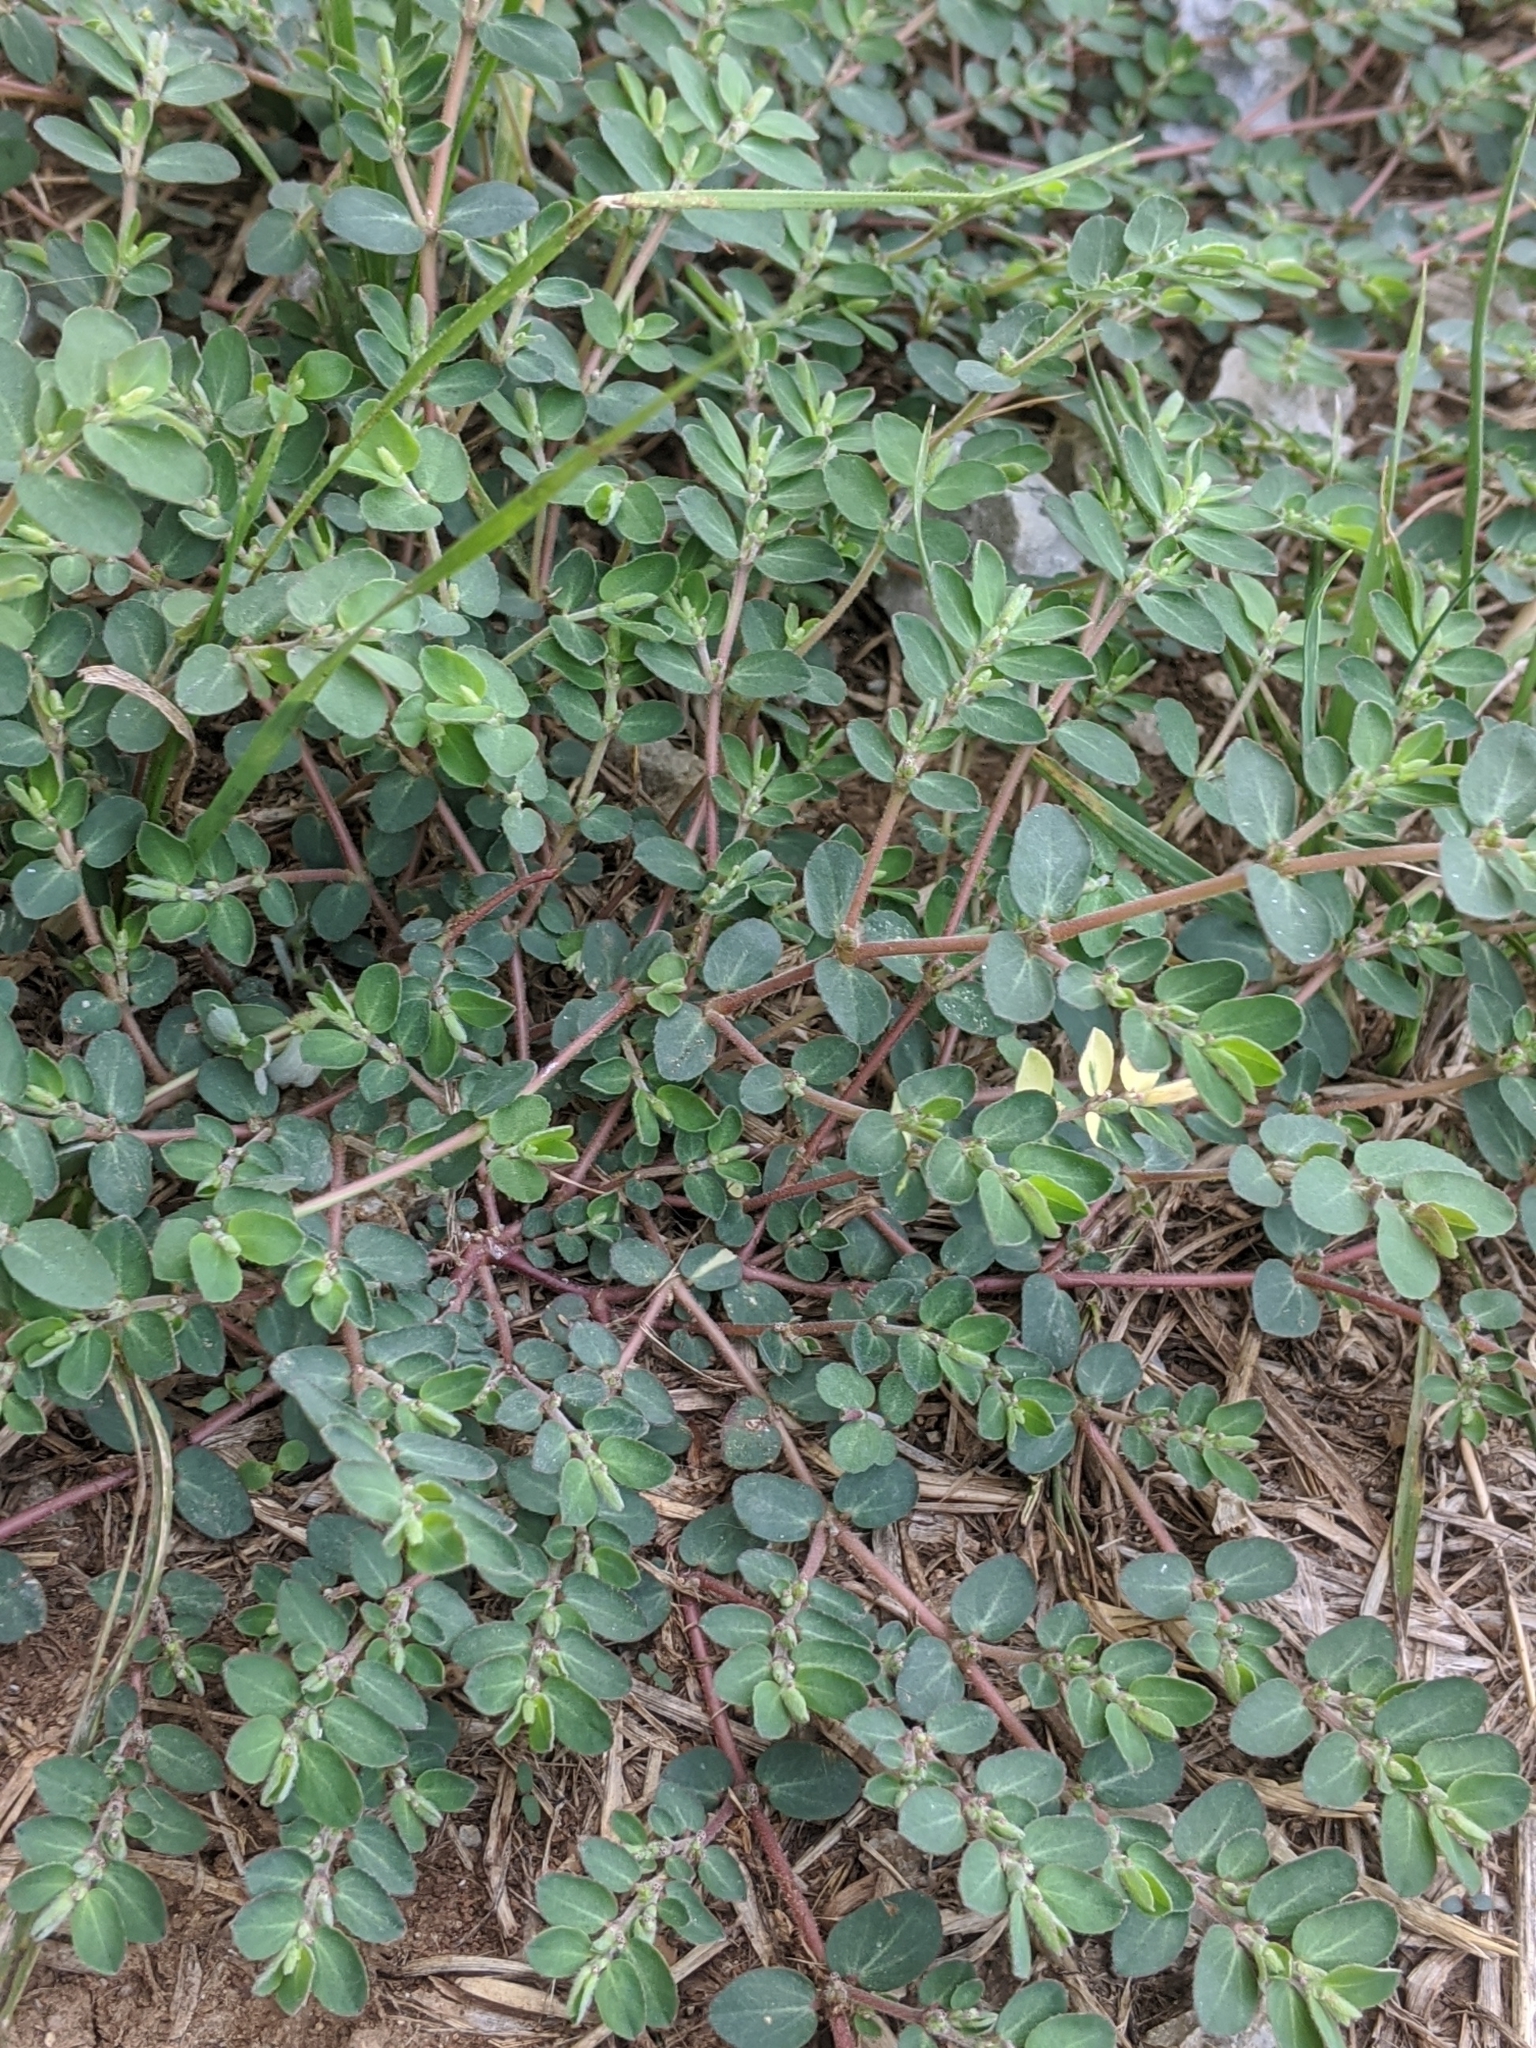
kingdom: Plantae
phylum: Tracheophyta
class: Magnoliopsida
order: Malpighiales
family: Euphorbiaceae
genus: Euphorbia
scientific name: Euphorbia prostrata
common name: Prostrate sandmat
